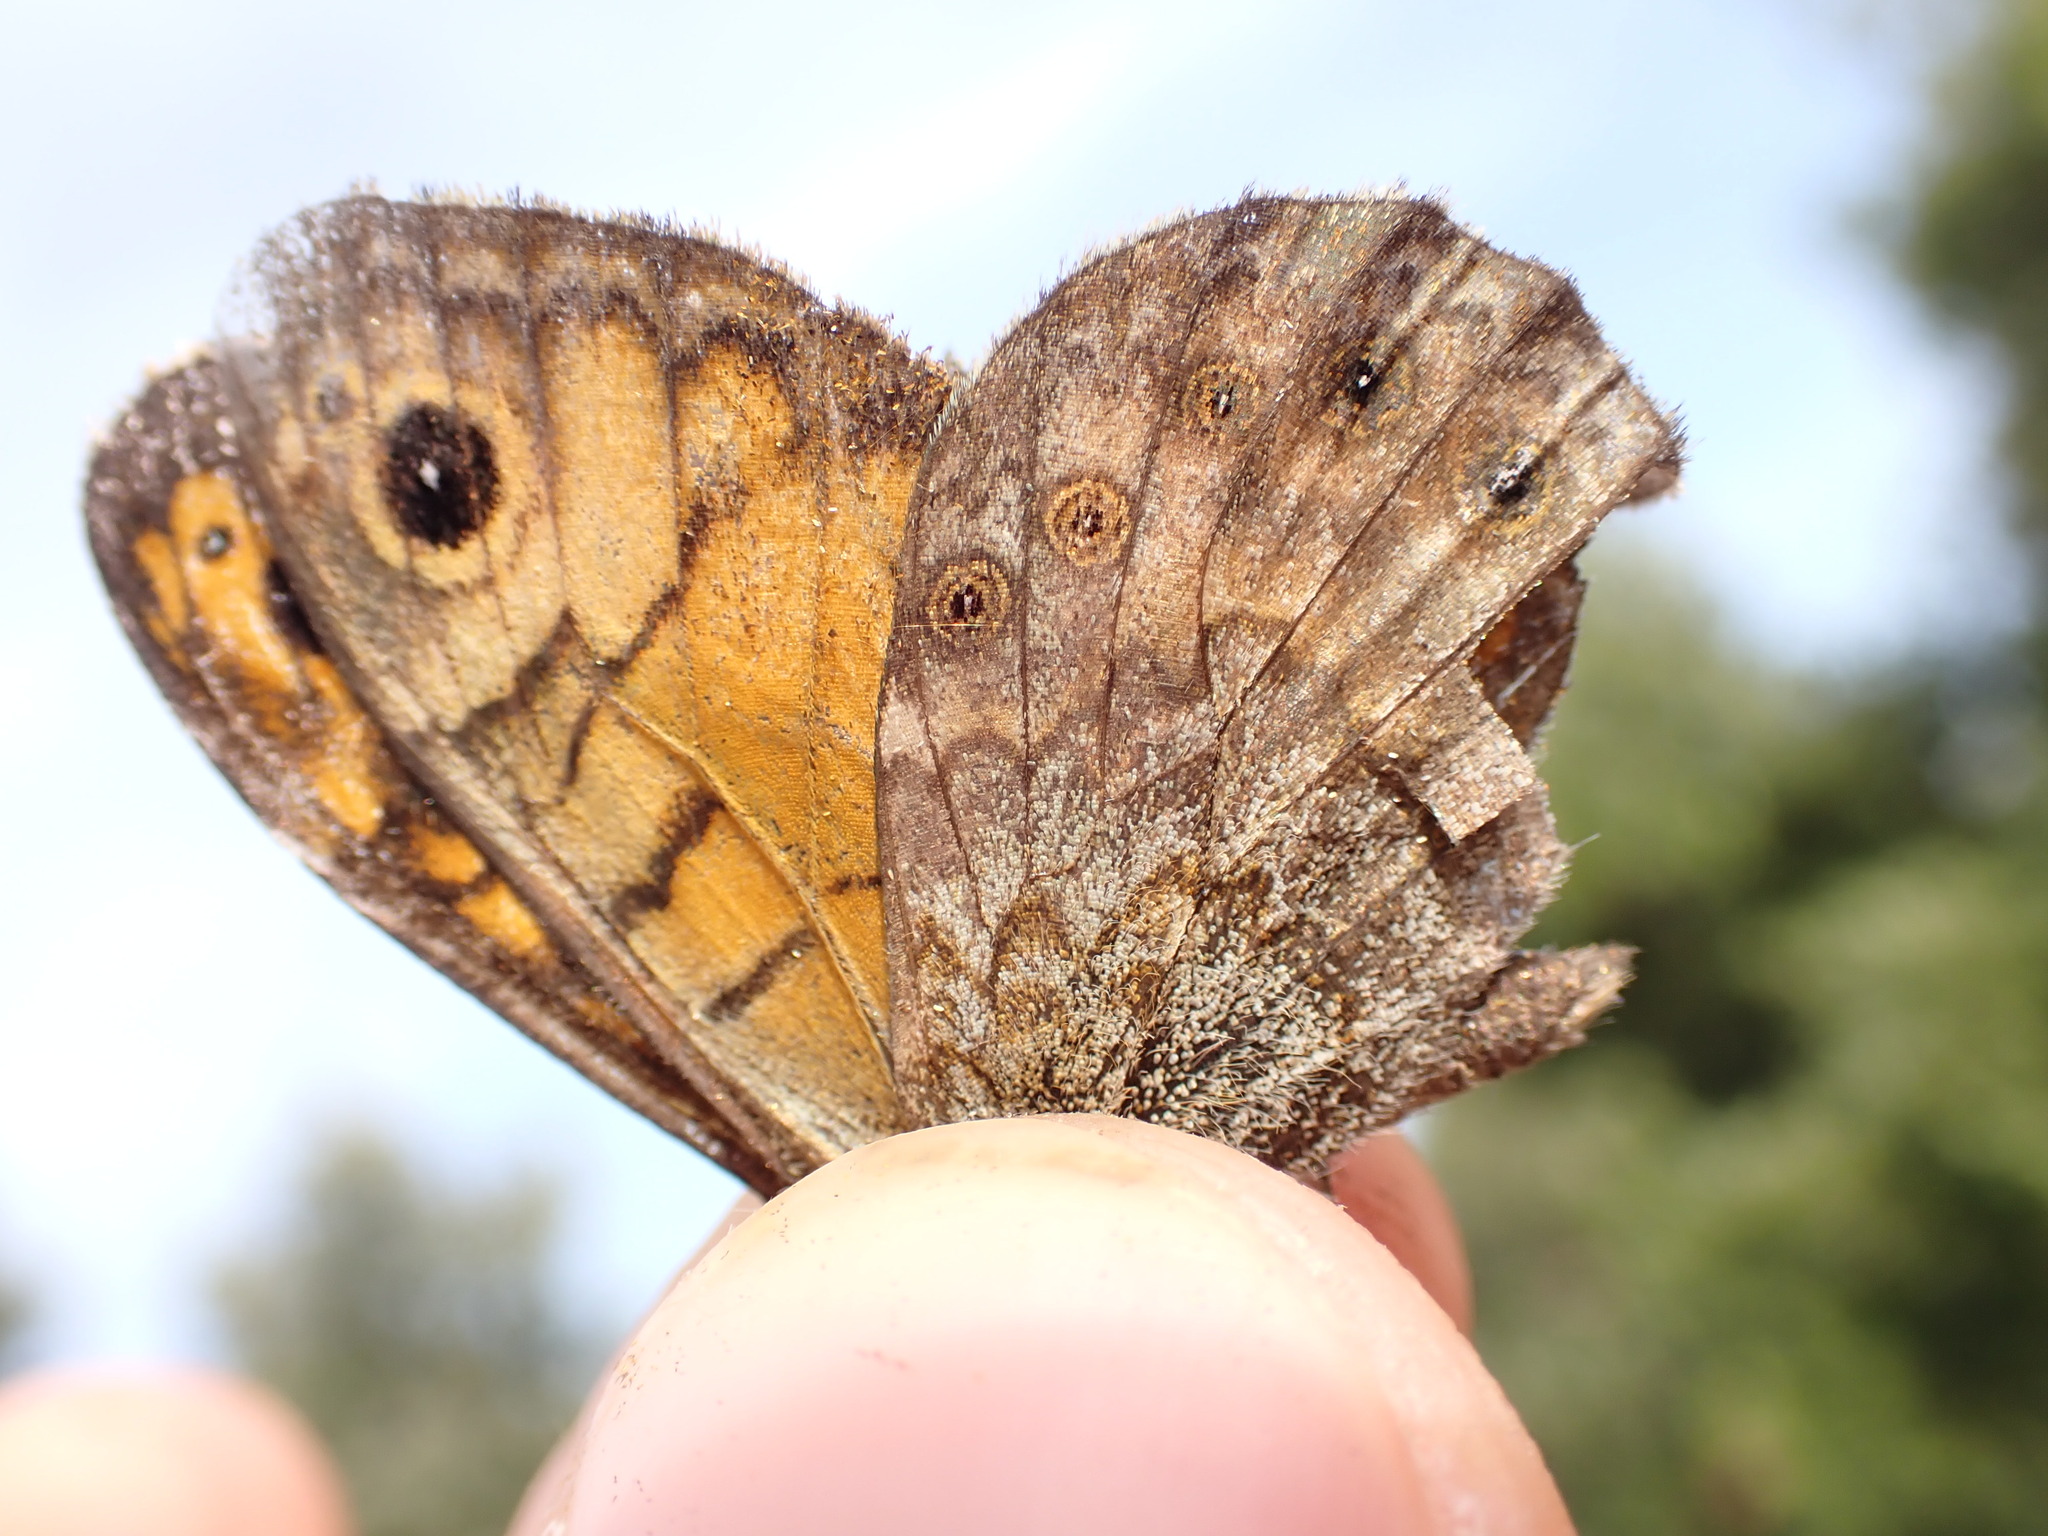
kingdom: Animalia
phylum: Arthropoda
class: Insecta
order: Lepidoptera
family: Nymphalidae
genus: Pararge
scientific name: Pararge Lasiommata megera
